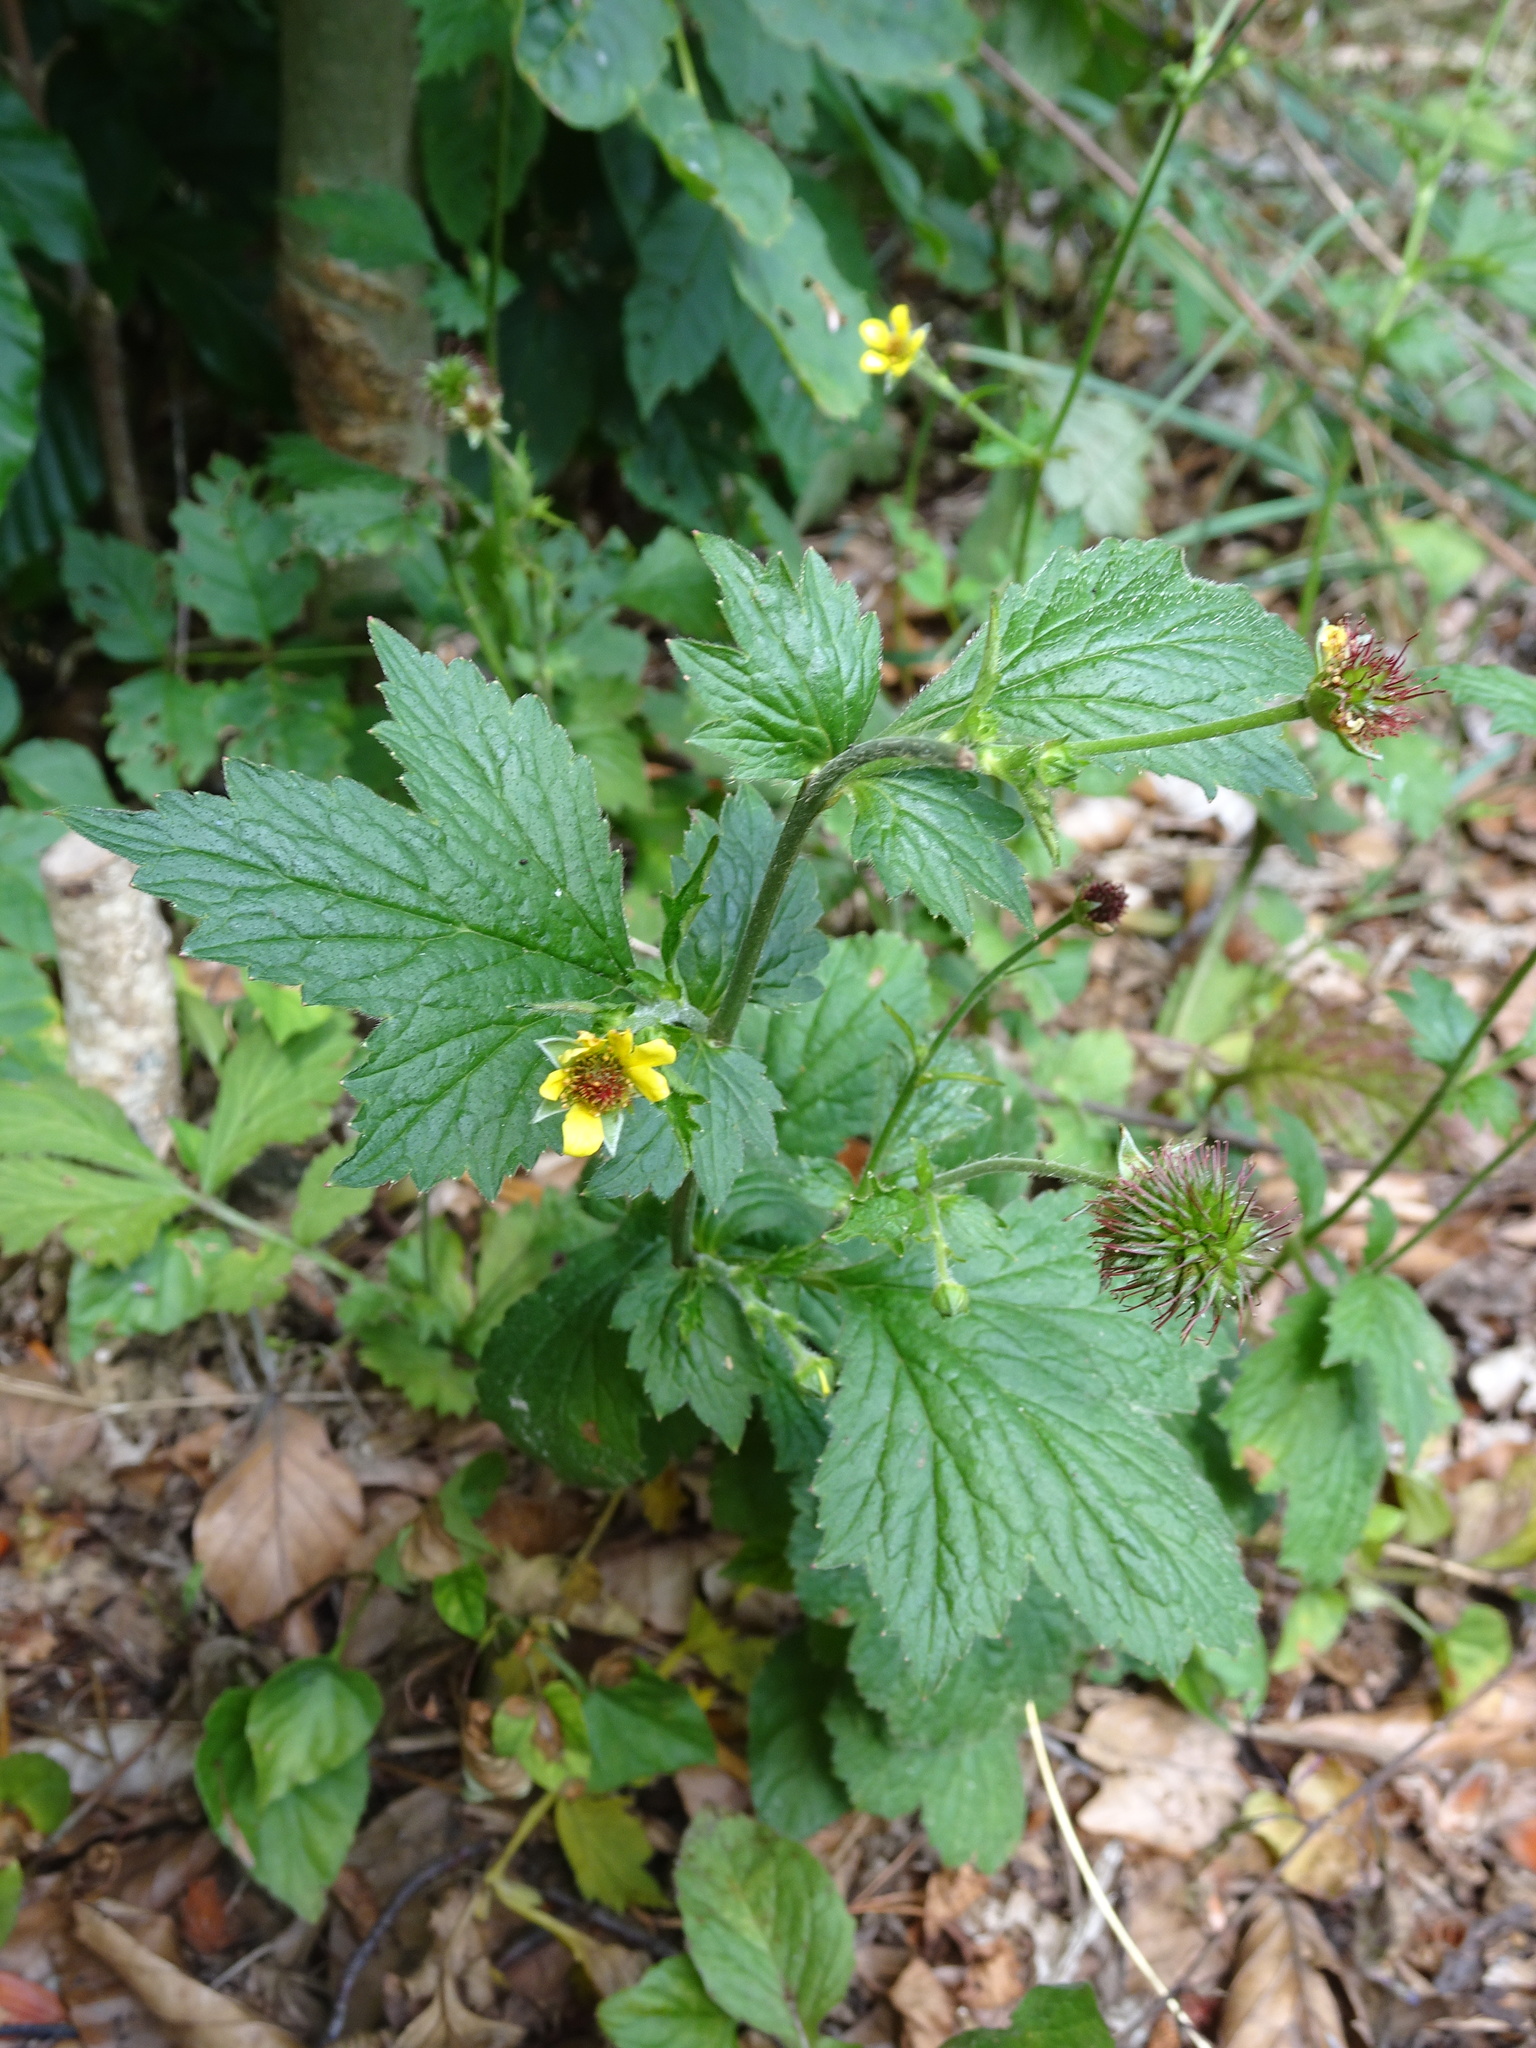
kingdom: Plantae
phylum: Tracheophyta
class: Magnoliopsida
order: Rosales
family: Rosaceae
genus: Geum
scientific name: Geum urbanum
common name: Wood avens
